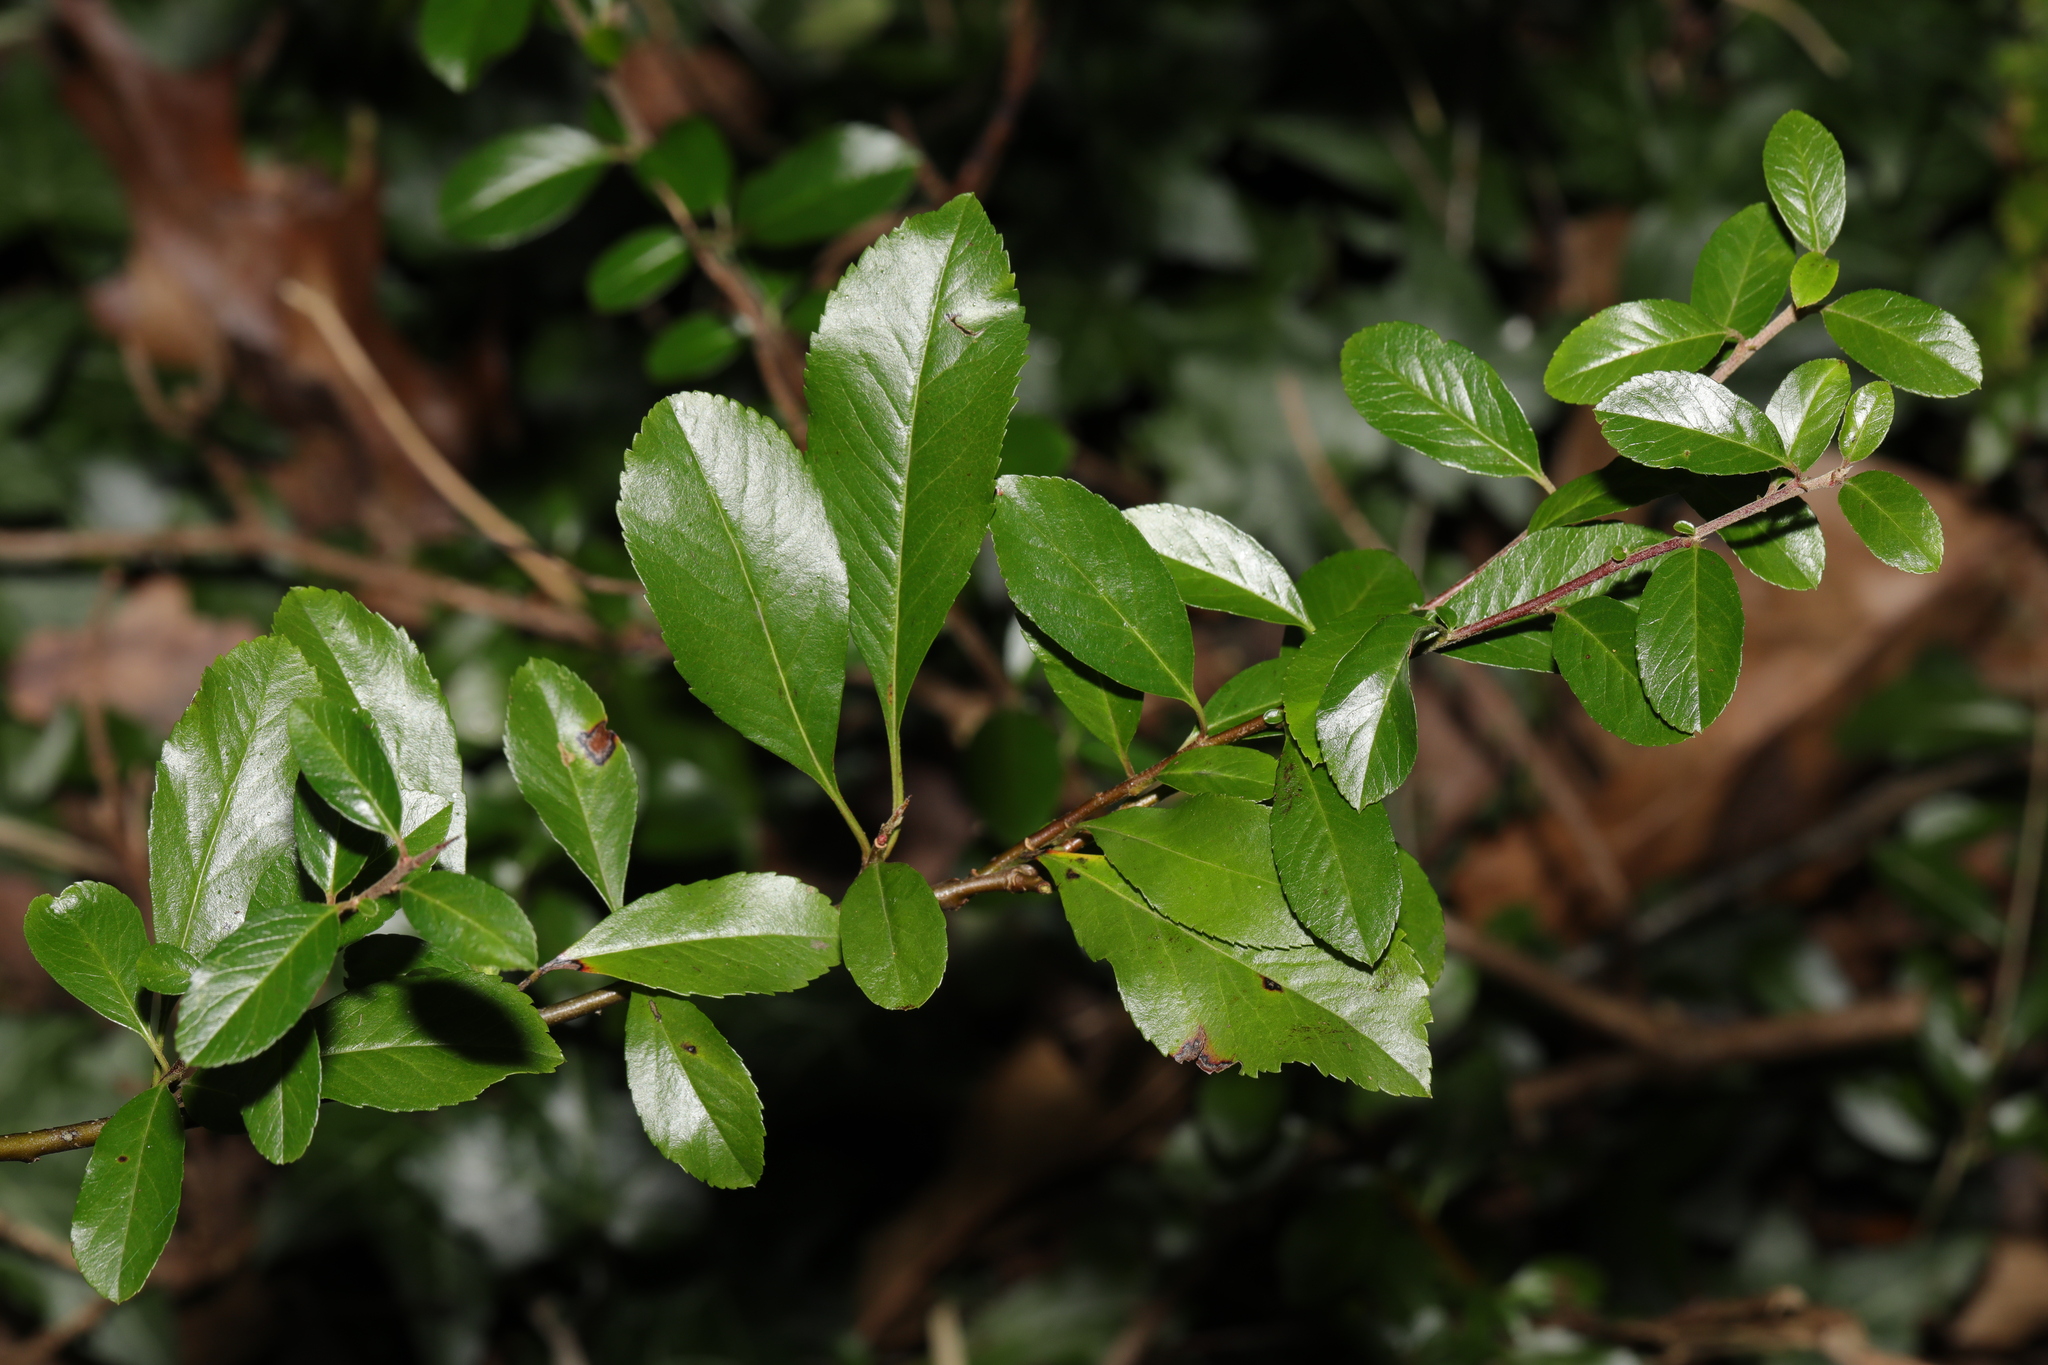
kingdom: Plantae
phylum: Tracheophyta
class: Magnoliopsida
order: Rosales
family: Rosaceae
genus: Pyracantha
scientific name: Pyracantha coccinea
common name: Firethorn
